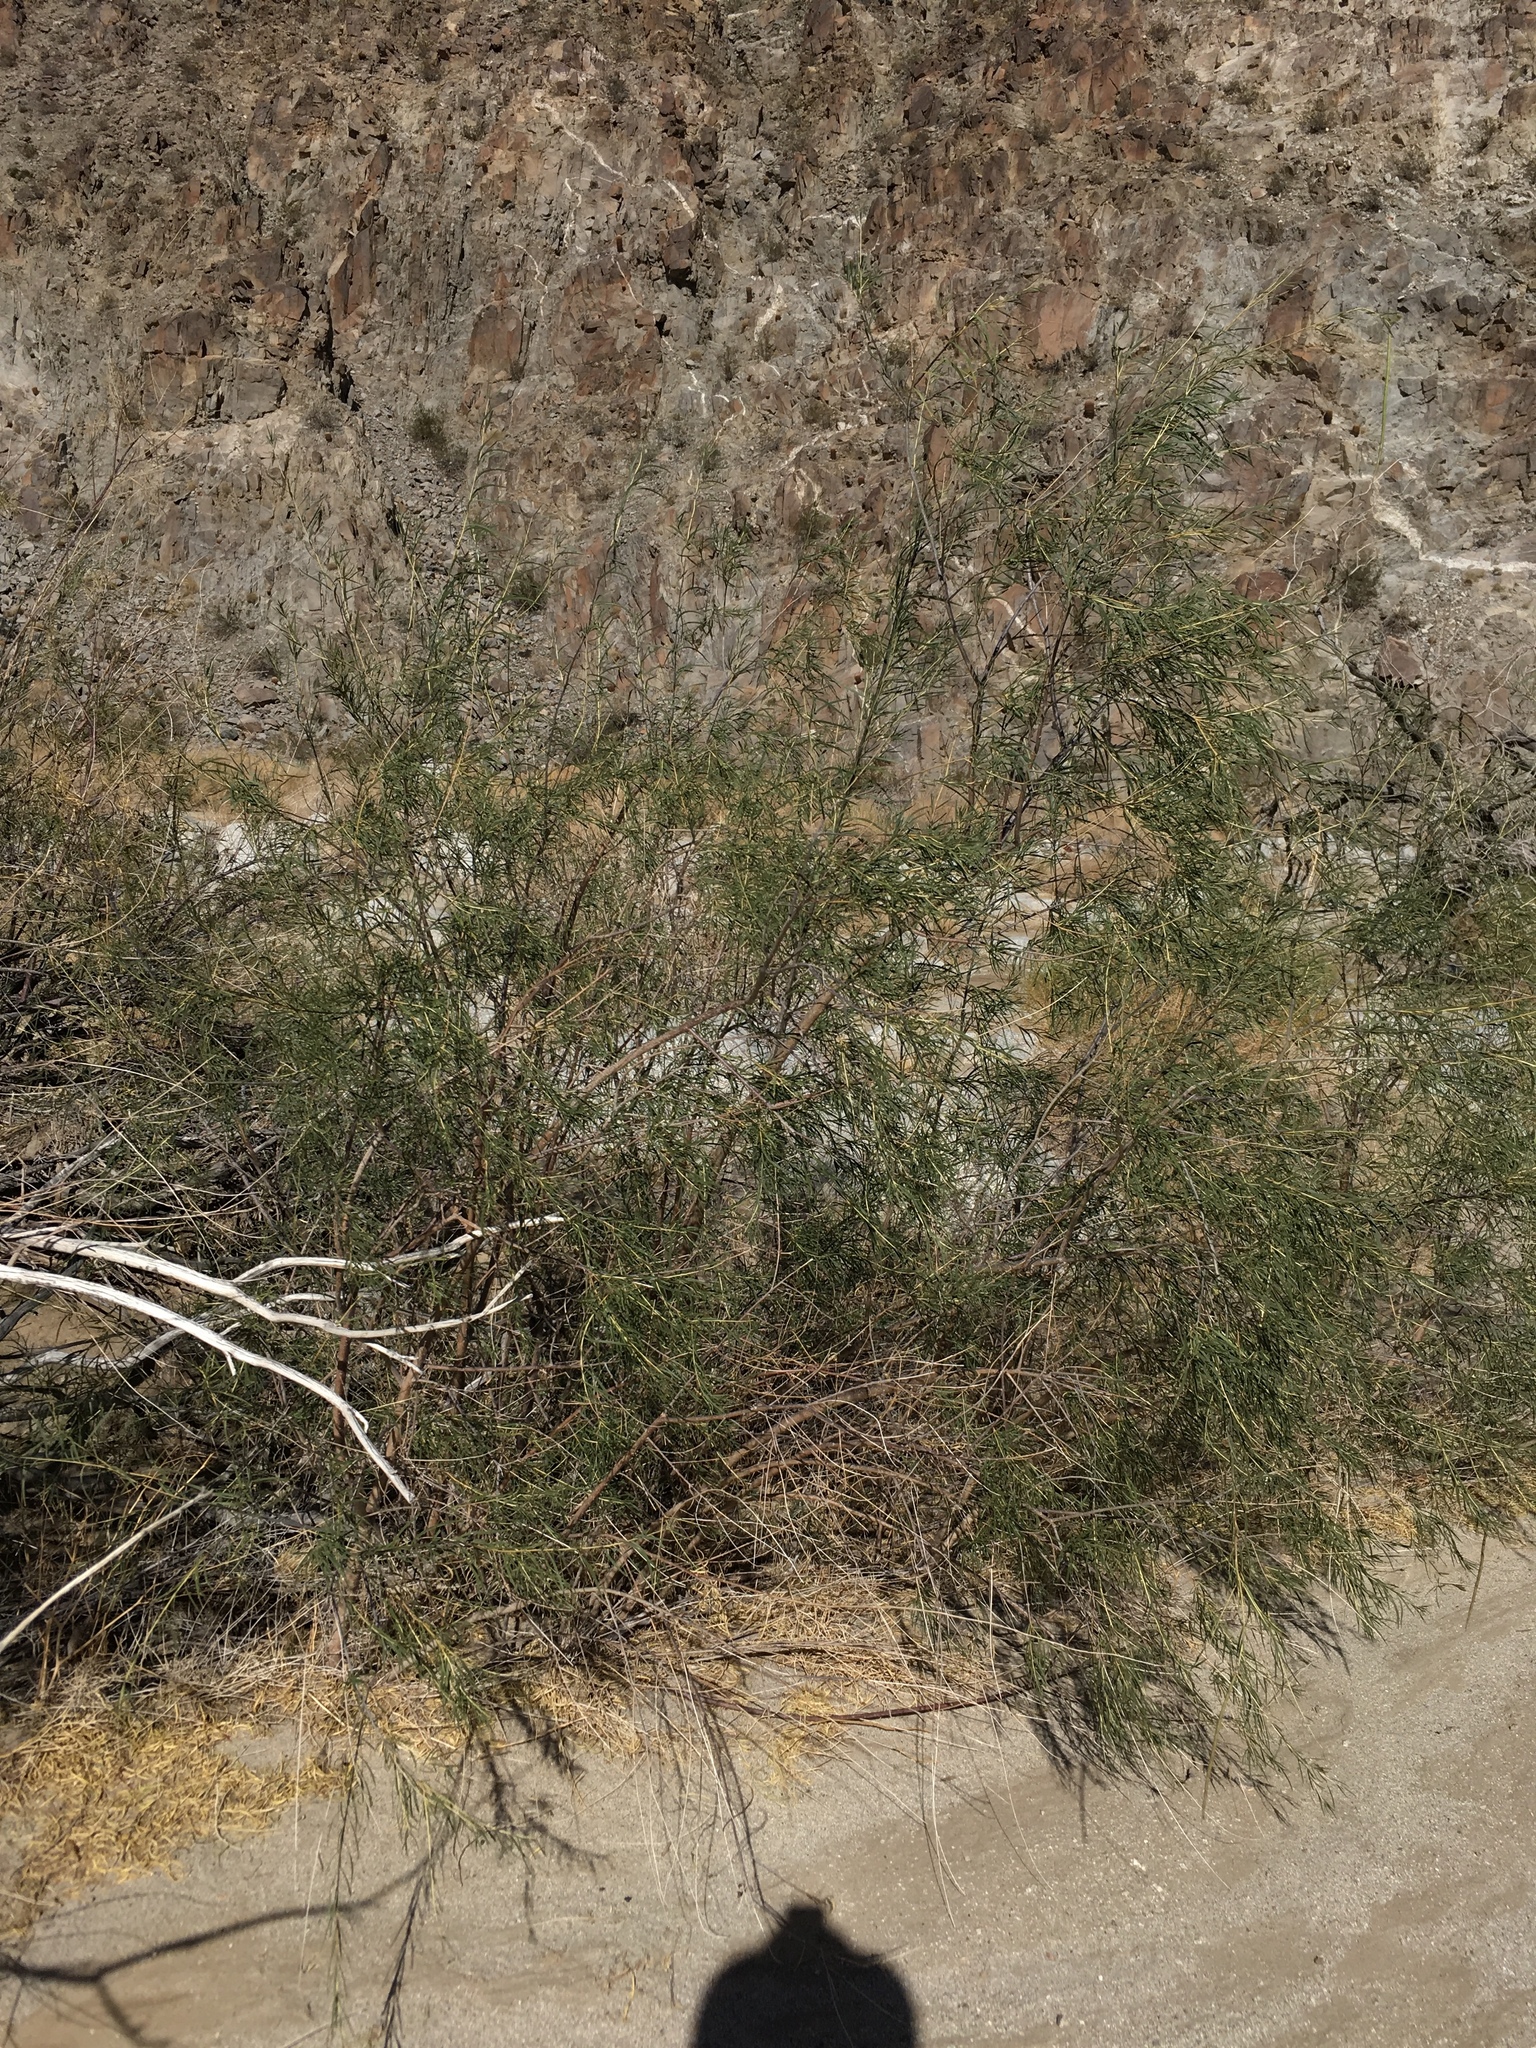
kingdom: Plantae
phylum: Tracheophyta
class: Magnoliopsida
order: Lamiales
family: Bignoniaceae
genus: Chilopsis
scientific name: Chilopsis linearis
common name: Desert-willow
